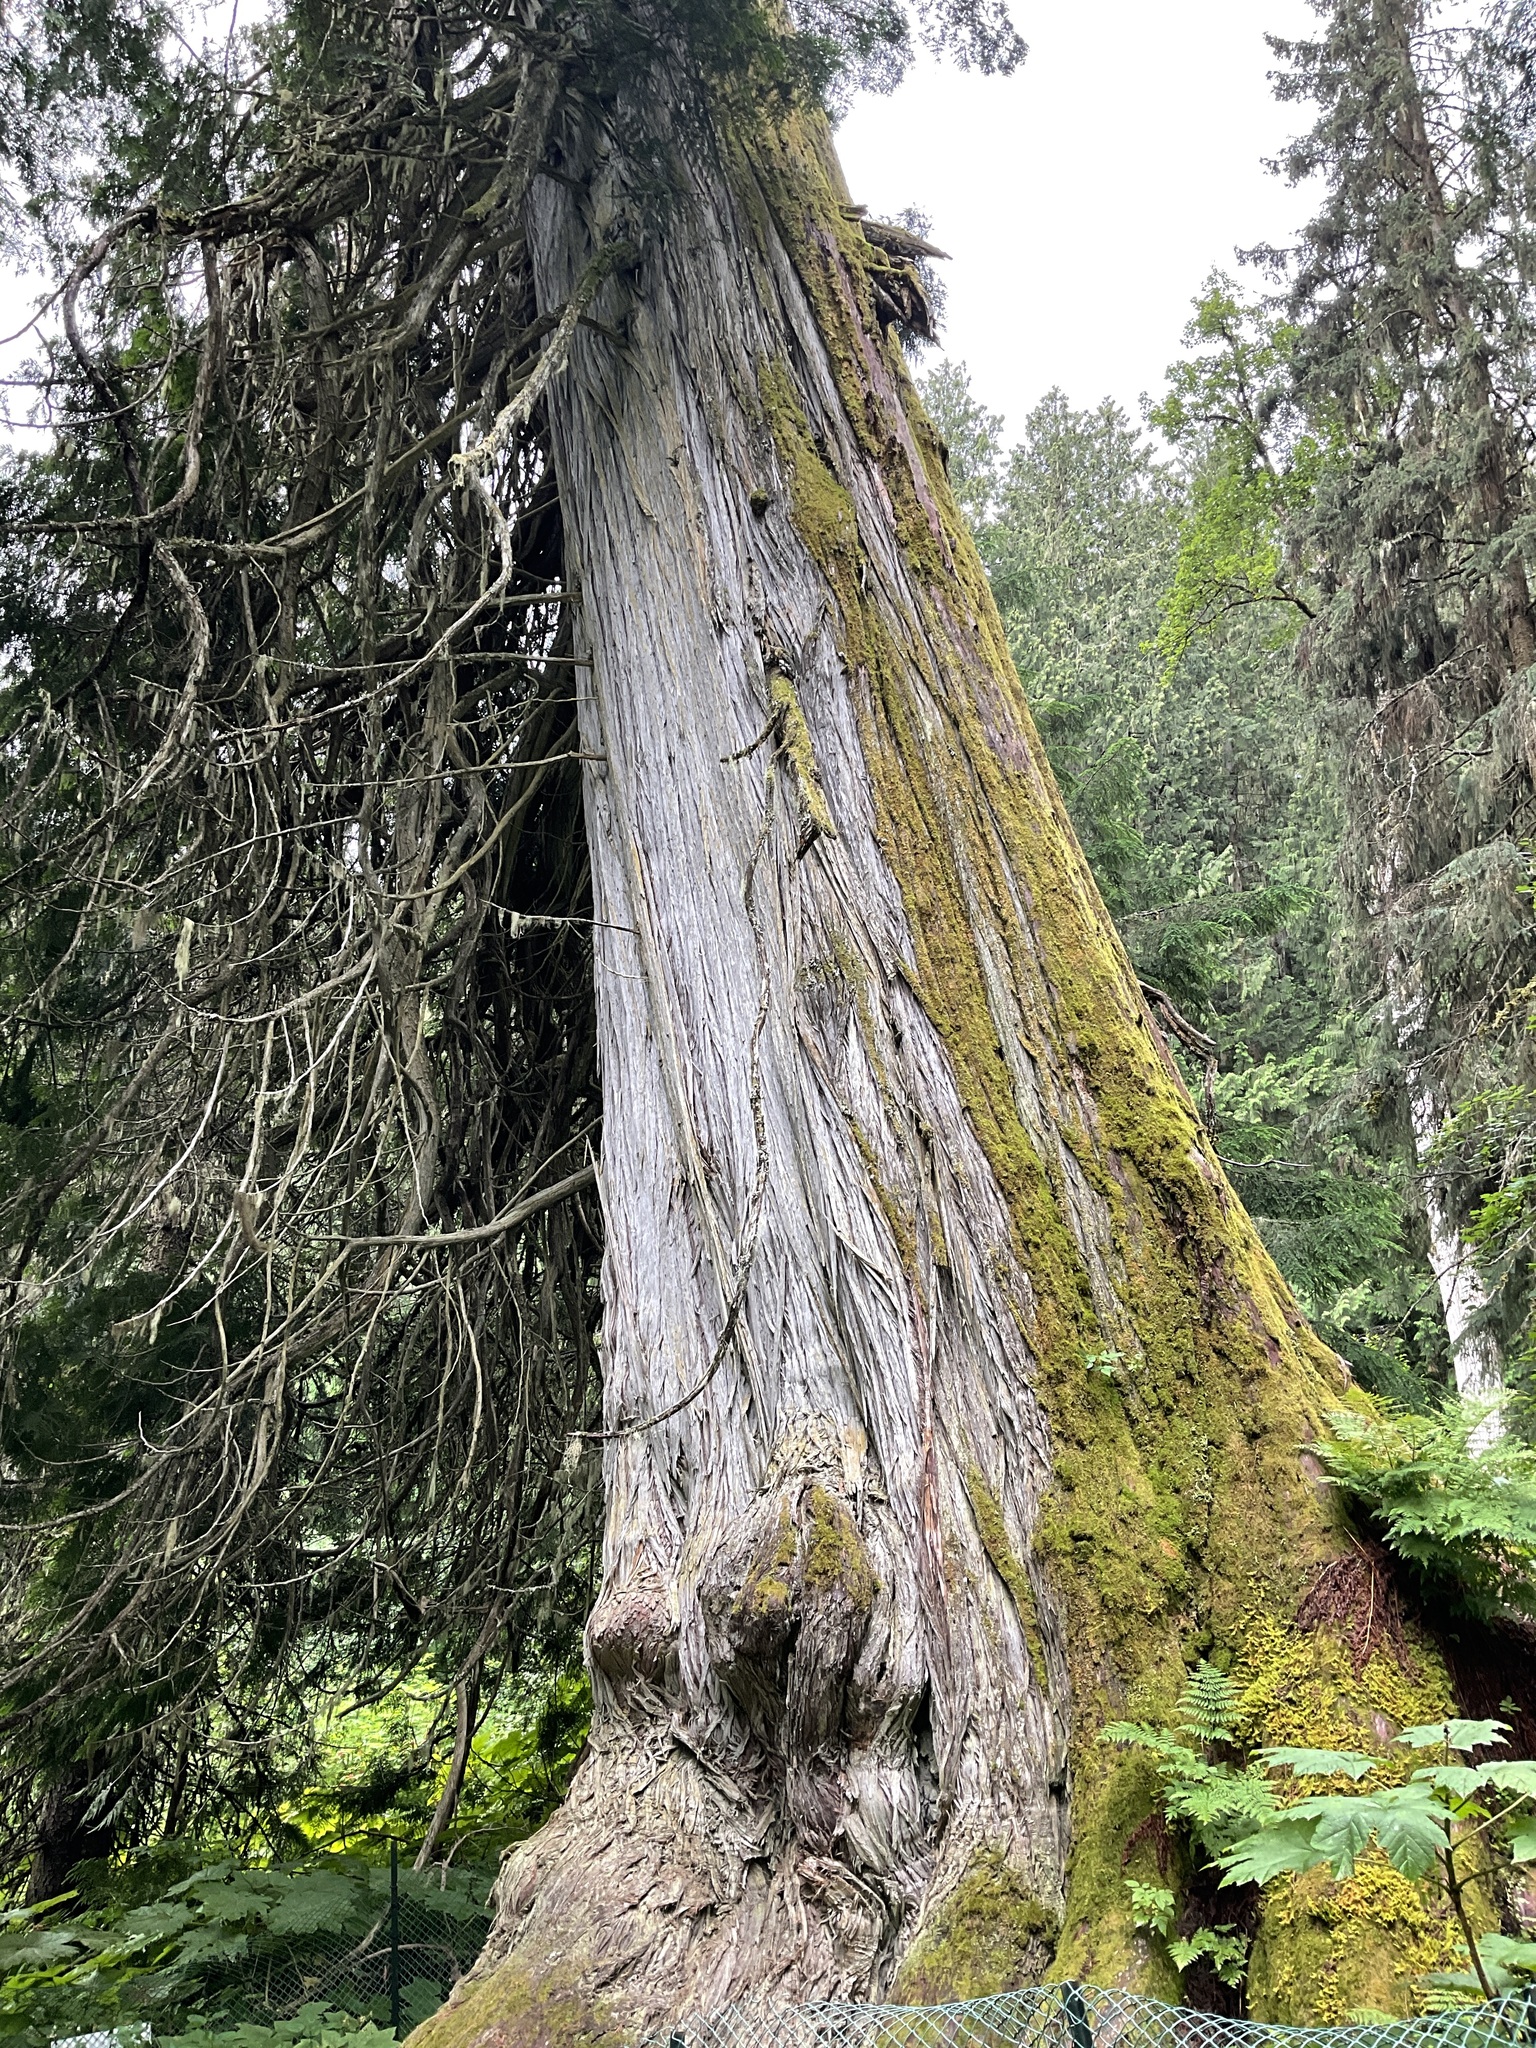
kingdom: Plantae
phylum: Tracheophyta
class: Pinopsida
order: Pinales
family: Cupressaceae
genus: Thuja
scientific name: Thuja plicata
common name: Western red-cedar
